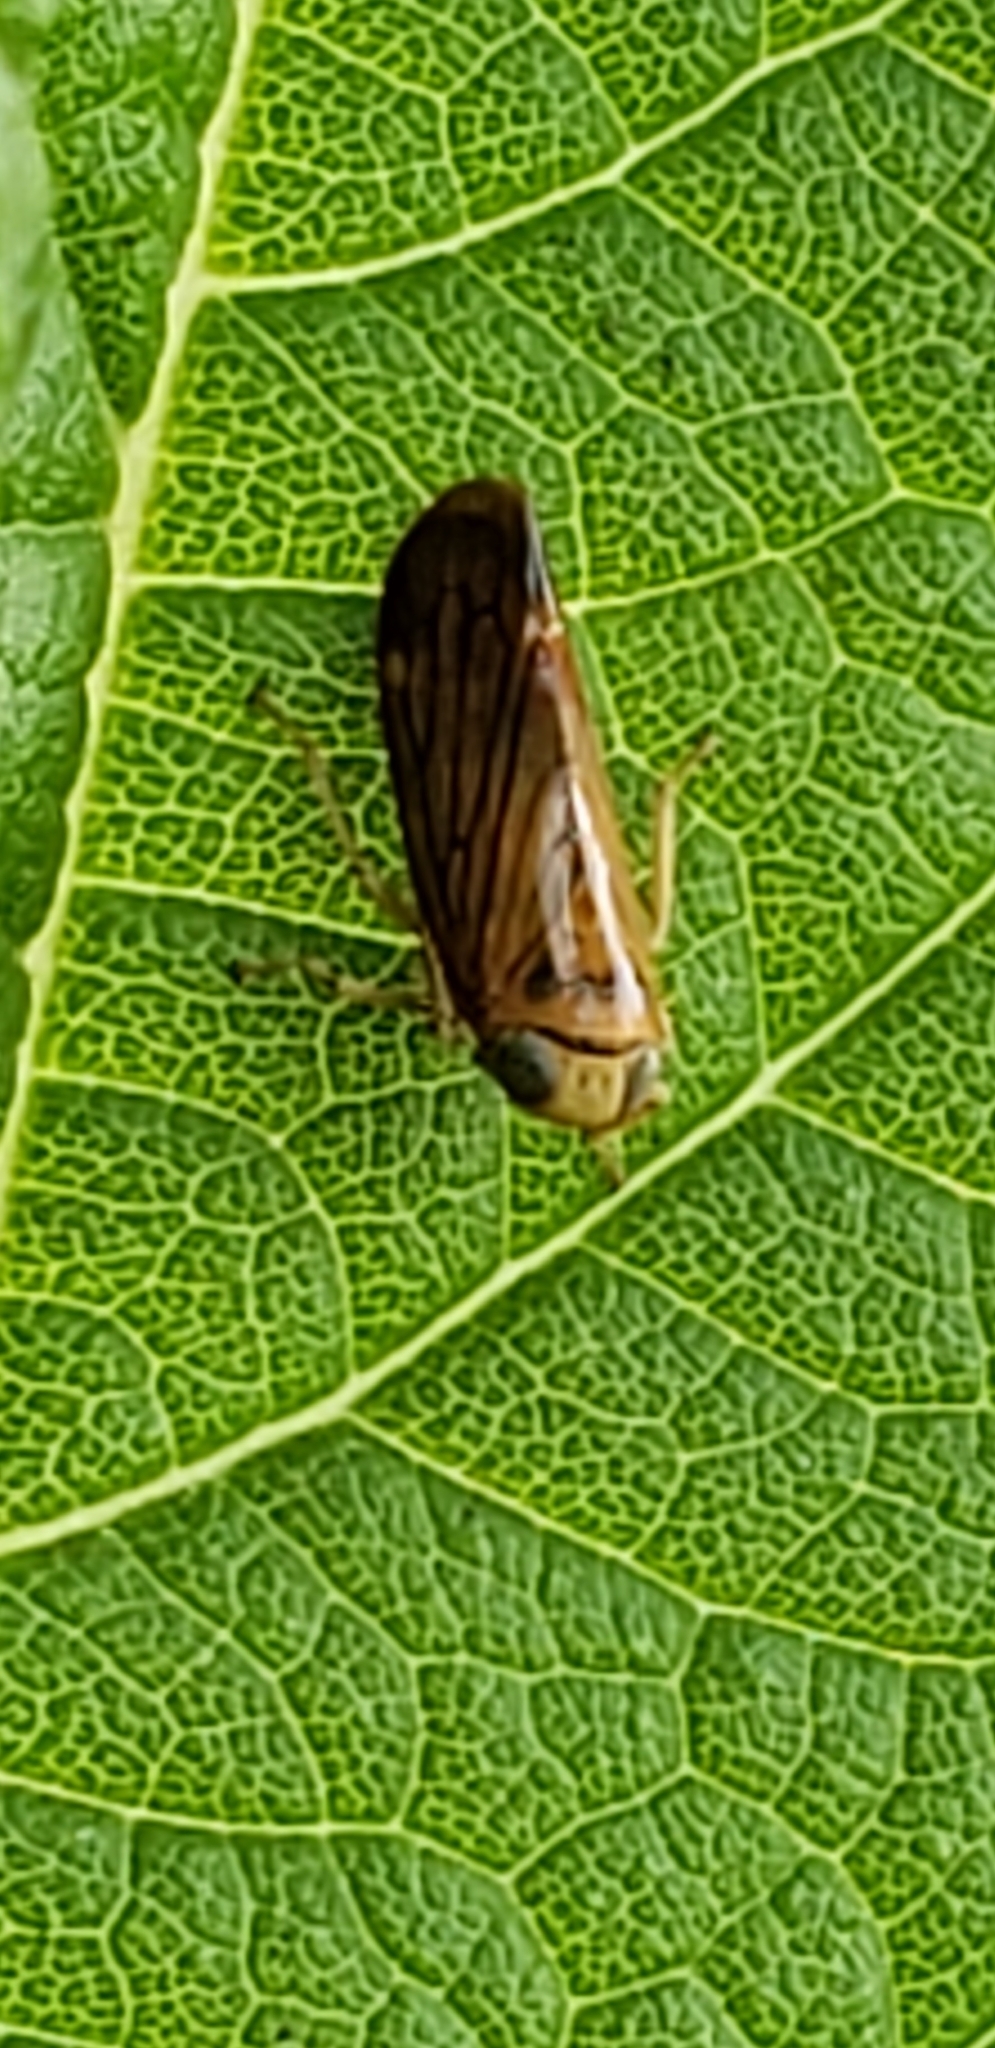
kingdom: Animalia
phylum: Arthropoda
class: Insecta
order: Hemiptera
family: Cicadellidae
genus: Jikradia
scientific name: Jikradia olitoria
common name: Coppery leafhopper
